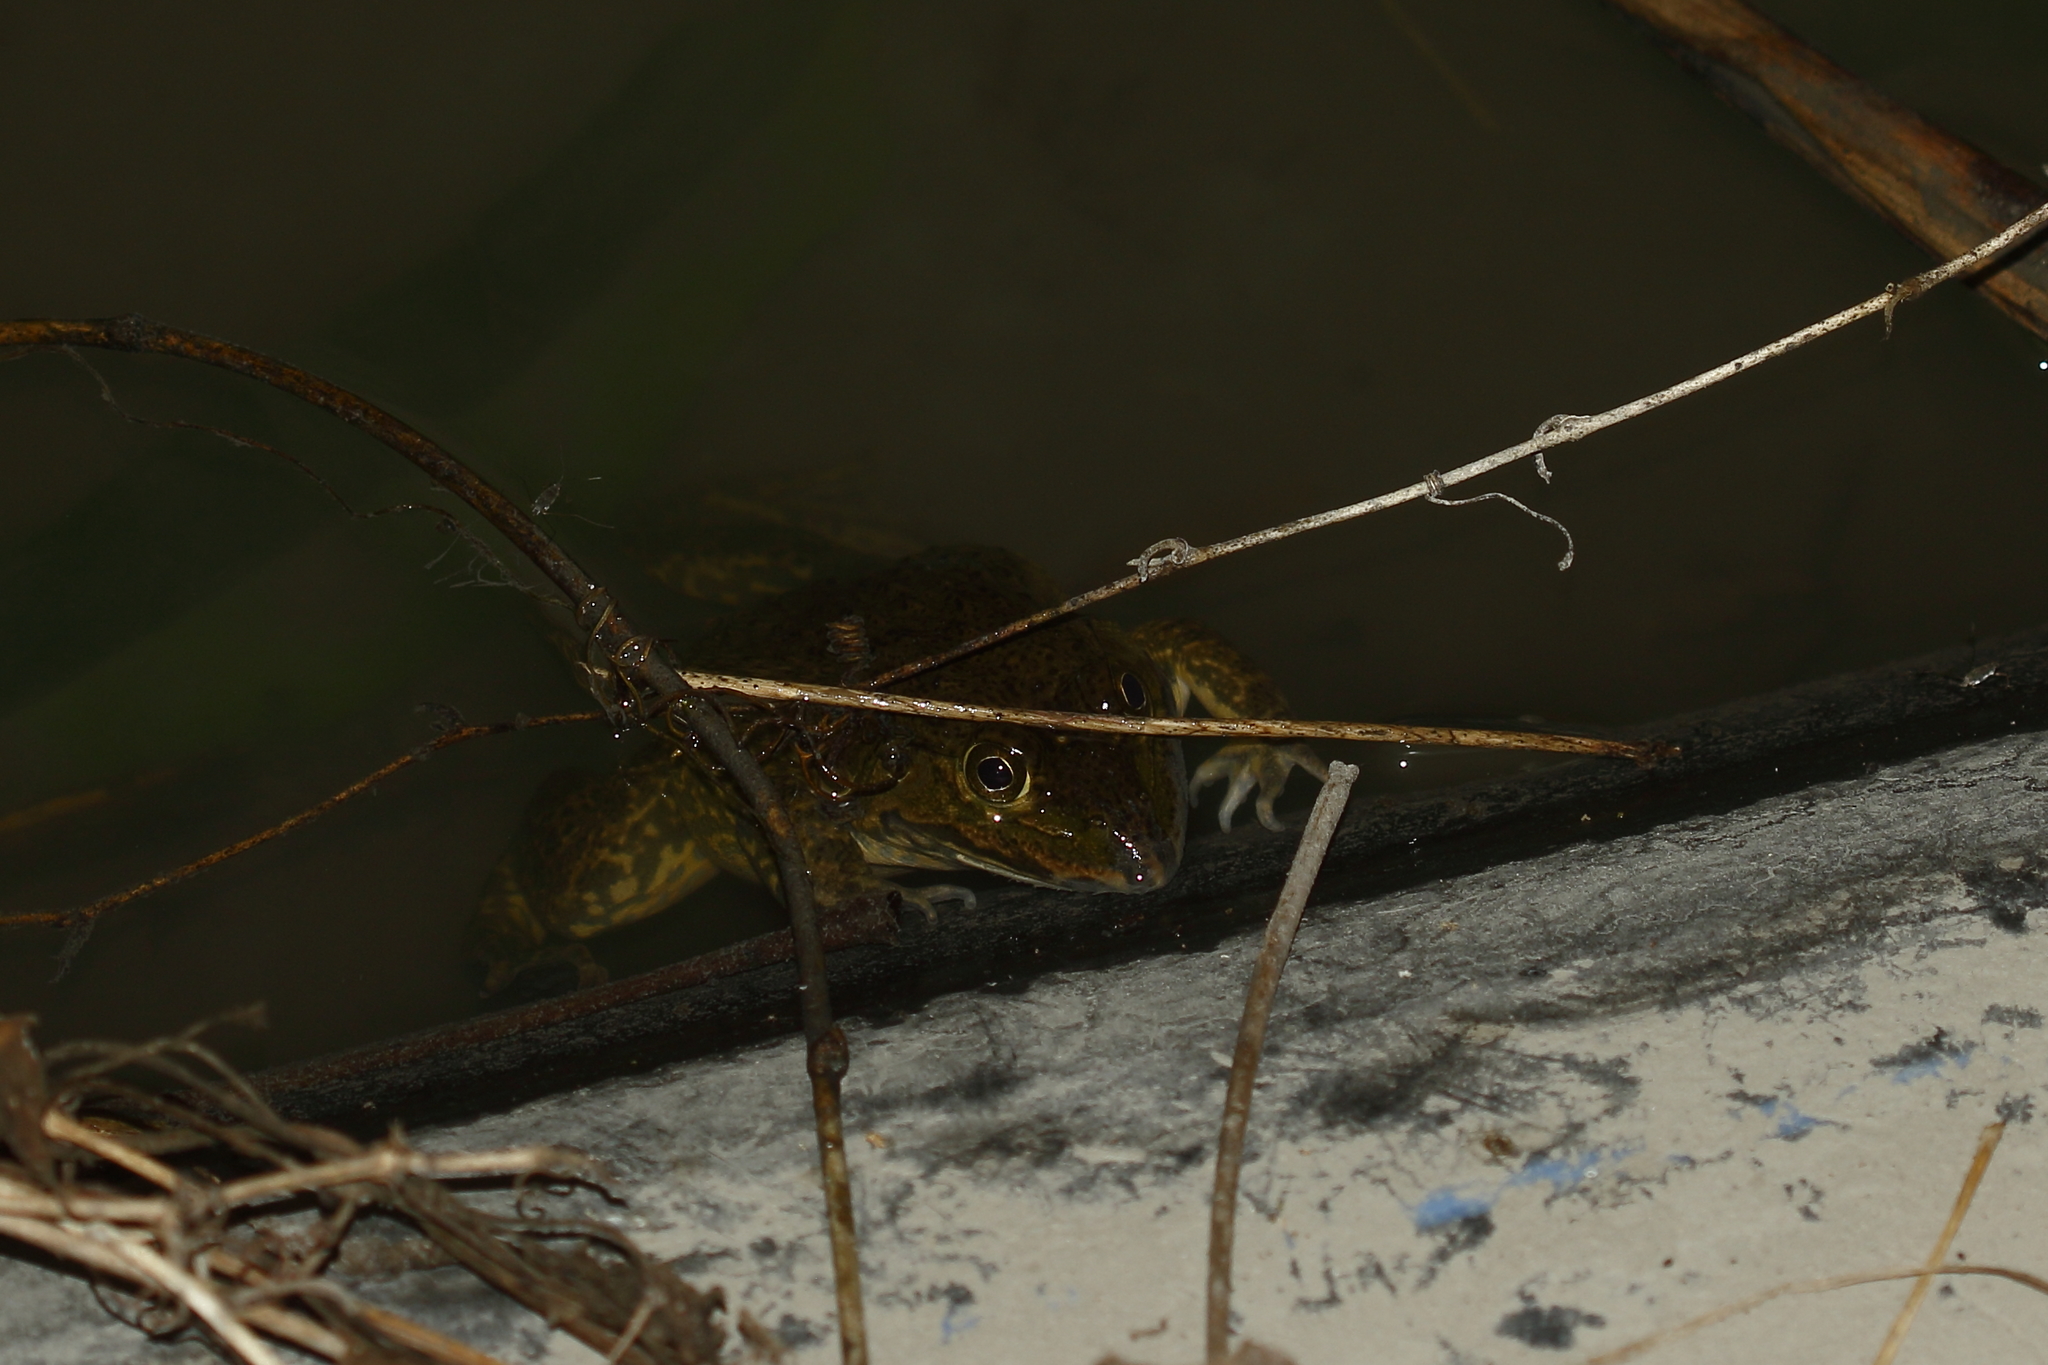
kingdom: Animalia
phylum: Chordata
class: Amphibia
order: Anura
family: Dicroglossidae
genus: Hoplobatrachus
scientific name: Hoplobatrachus rugulosus
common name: Chinese edible frog
